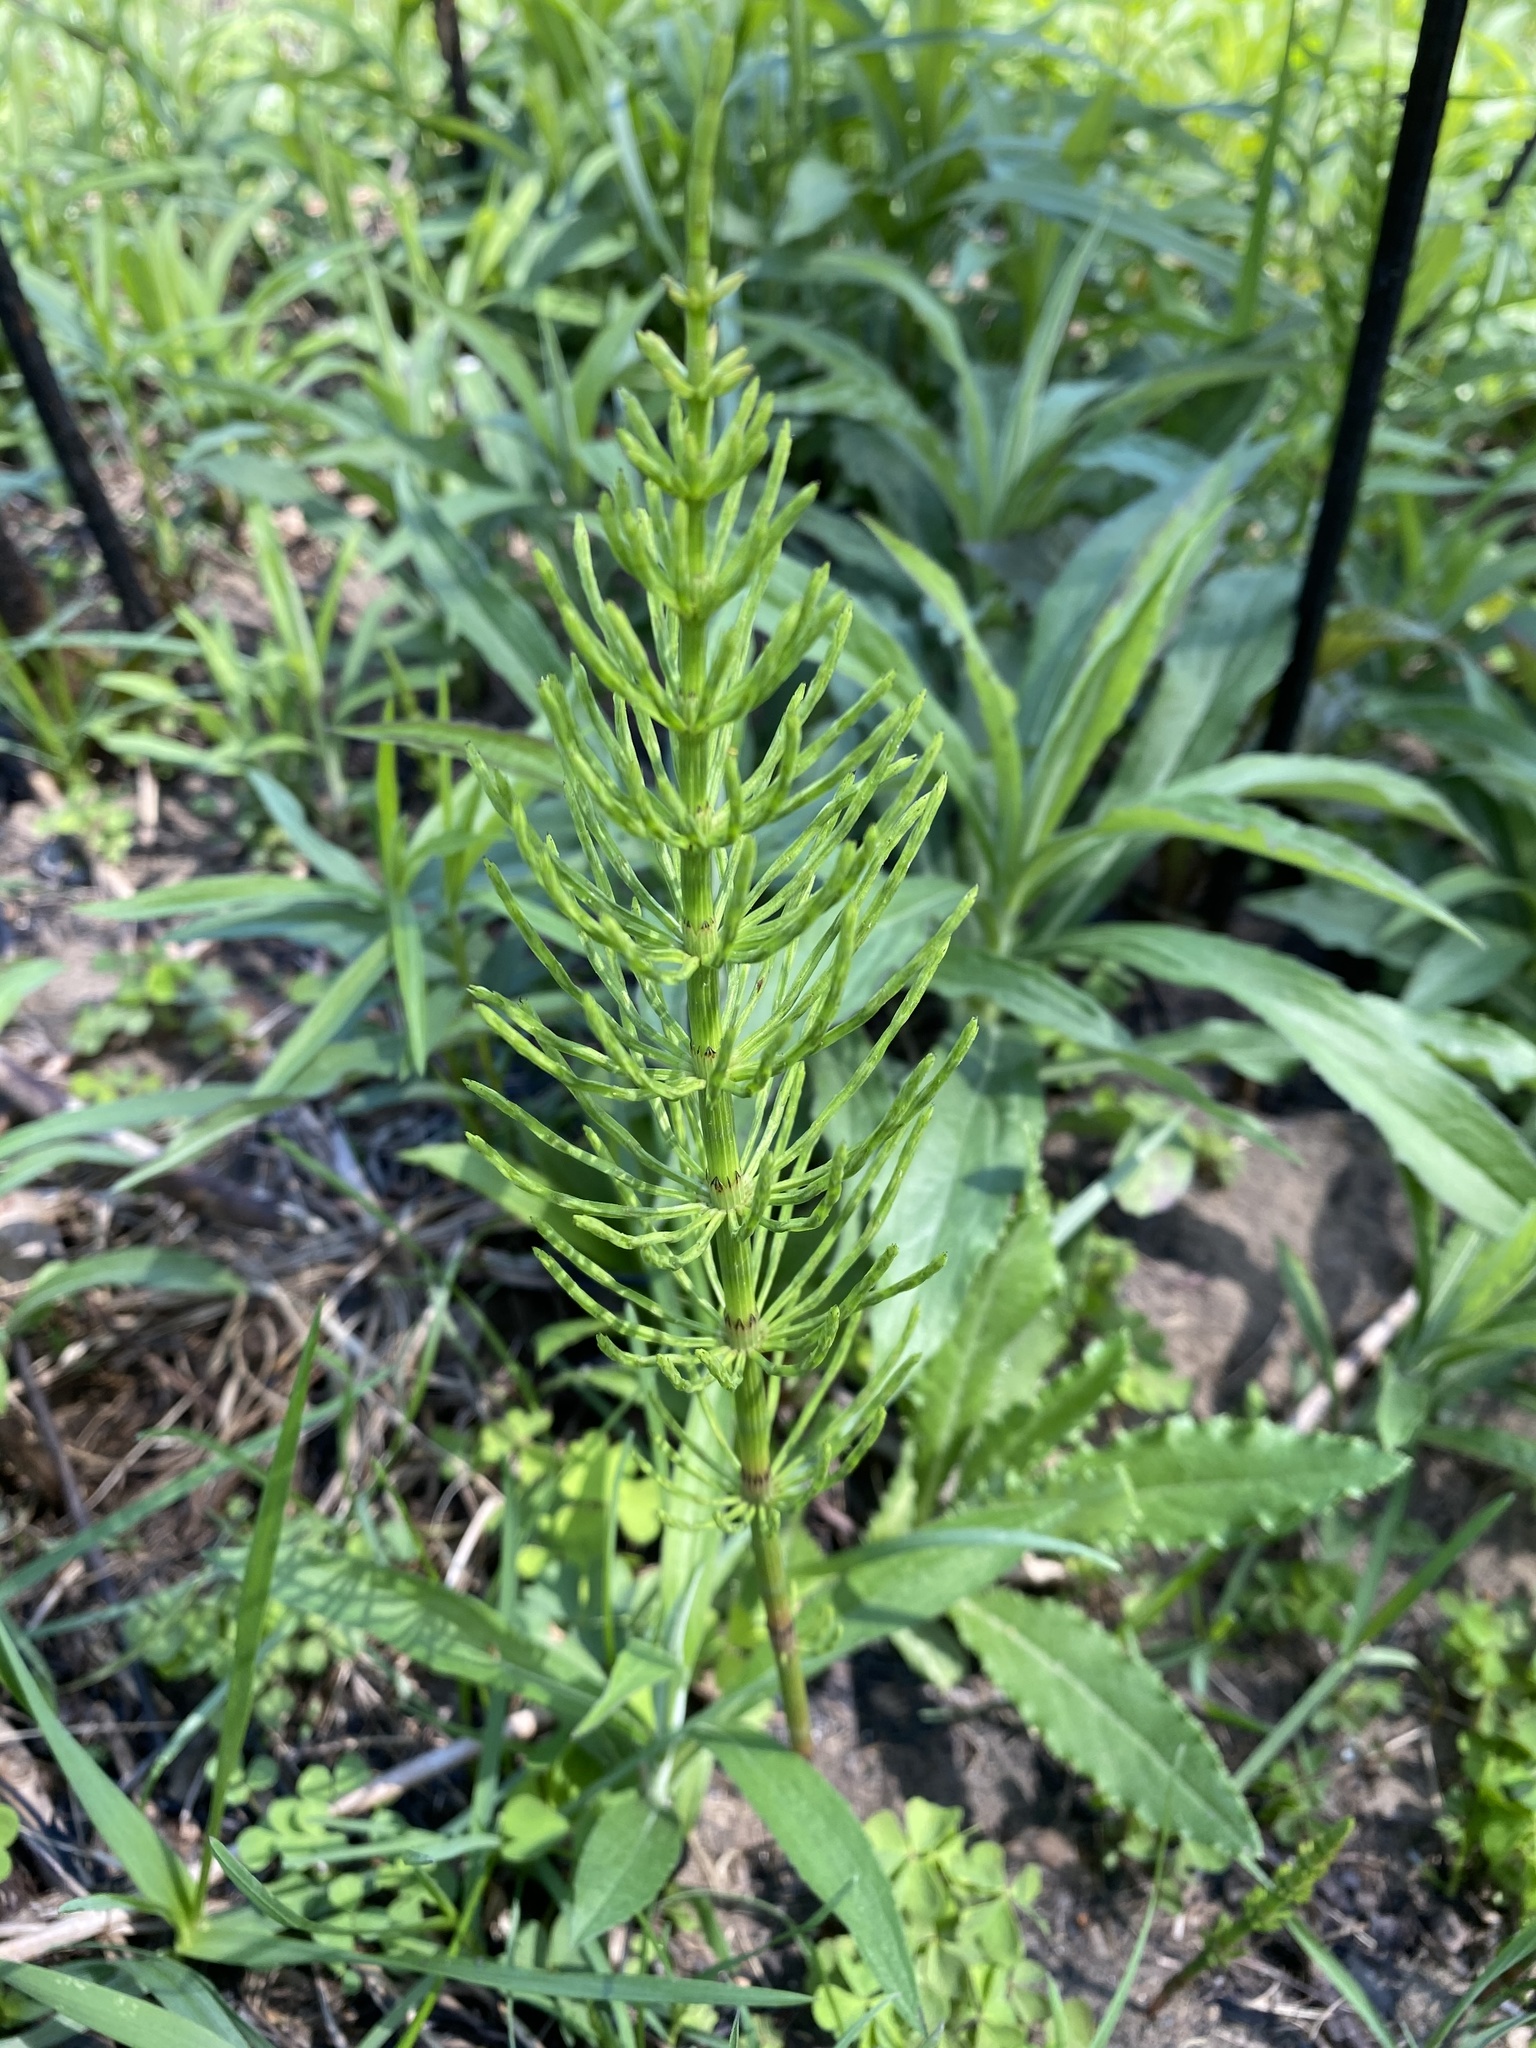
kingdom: Plantae
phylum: Tracheophyta
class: Polypodiopsida
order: Equisetales
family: Equisetaceae
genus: Equisetum
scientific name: Equisetum arvense
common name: Field horsetail
